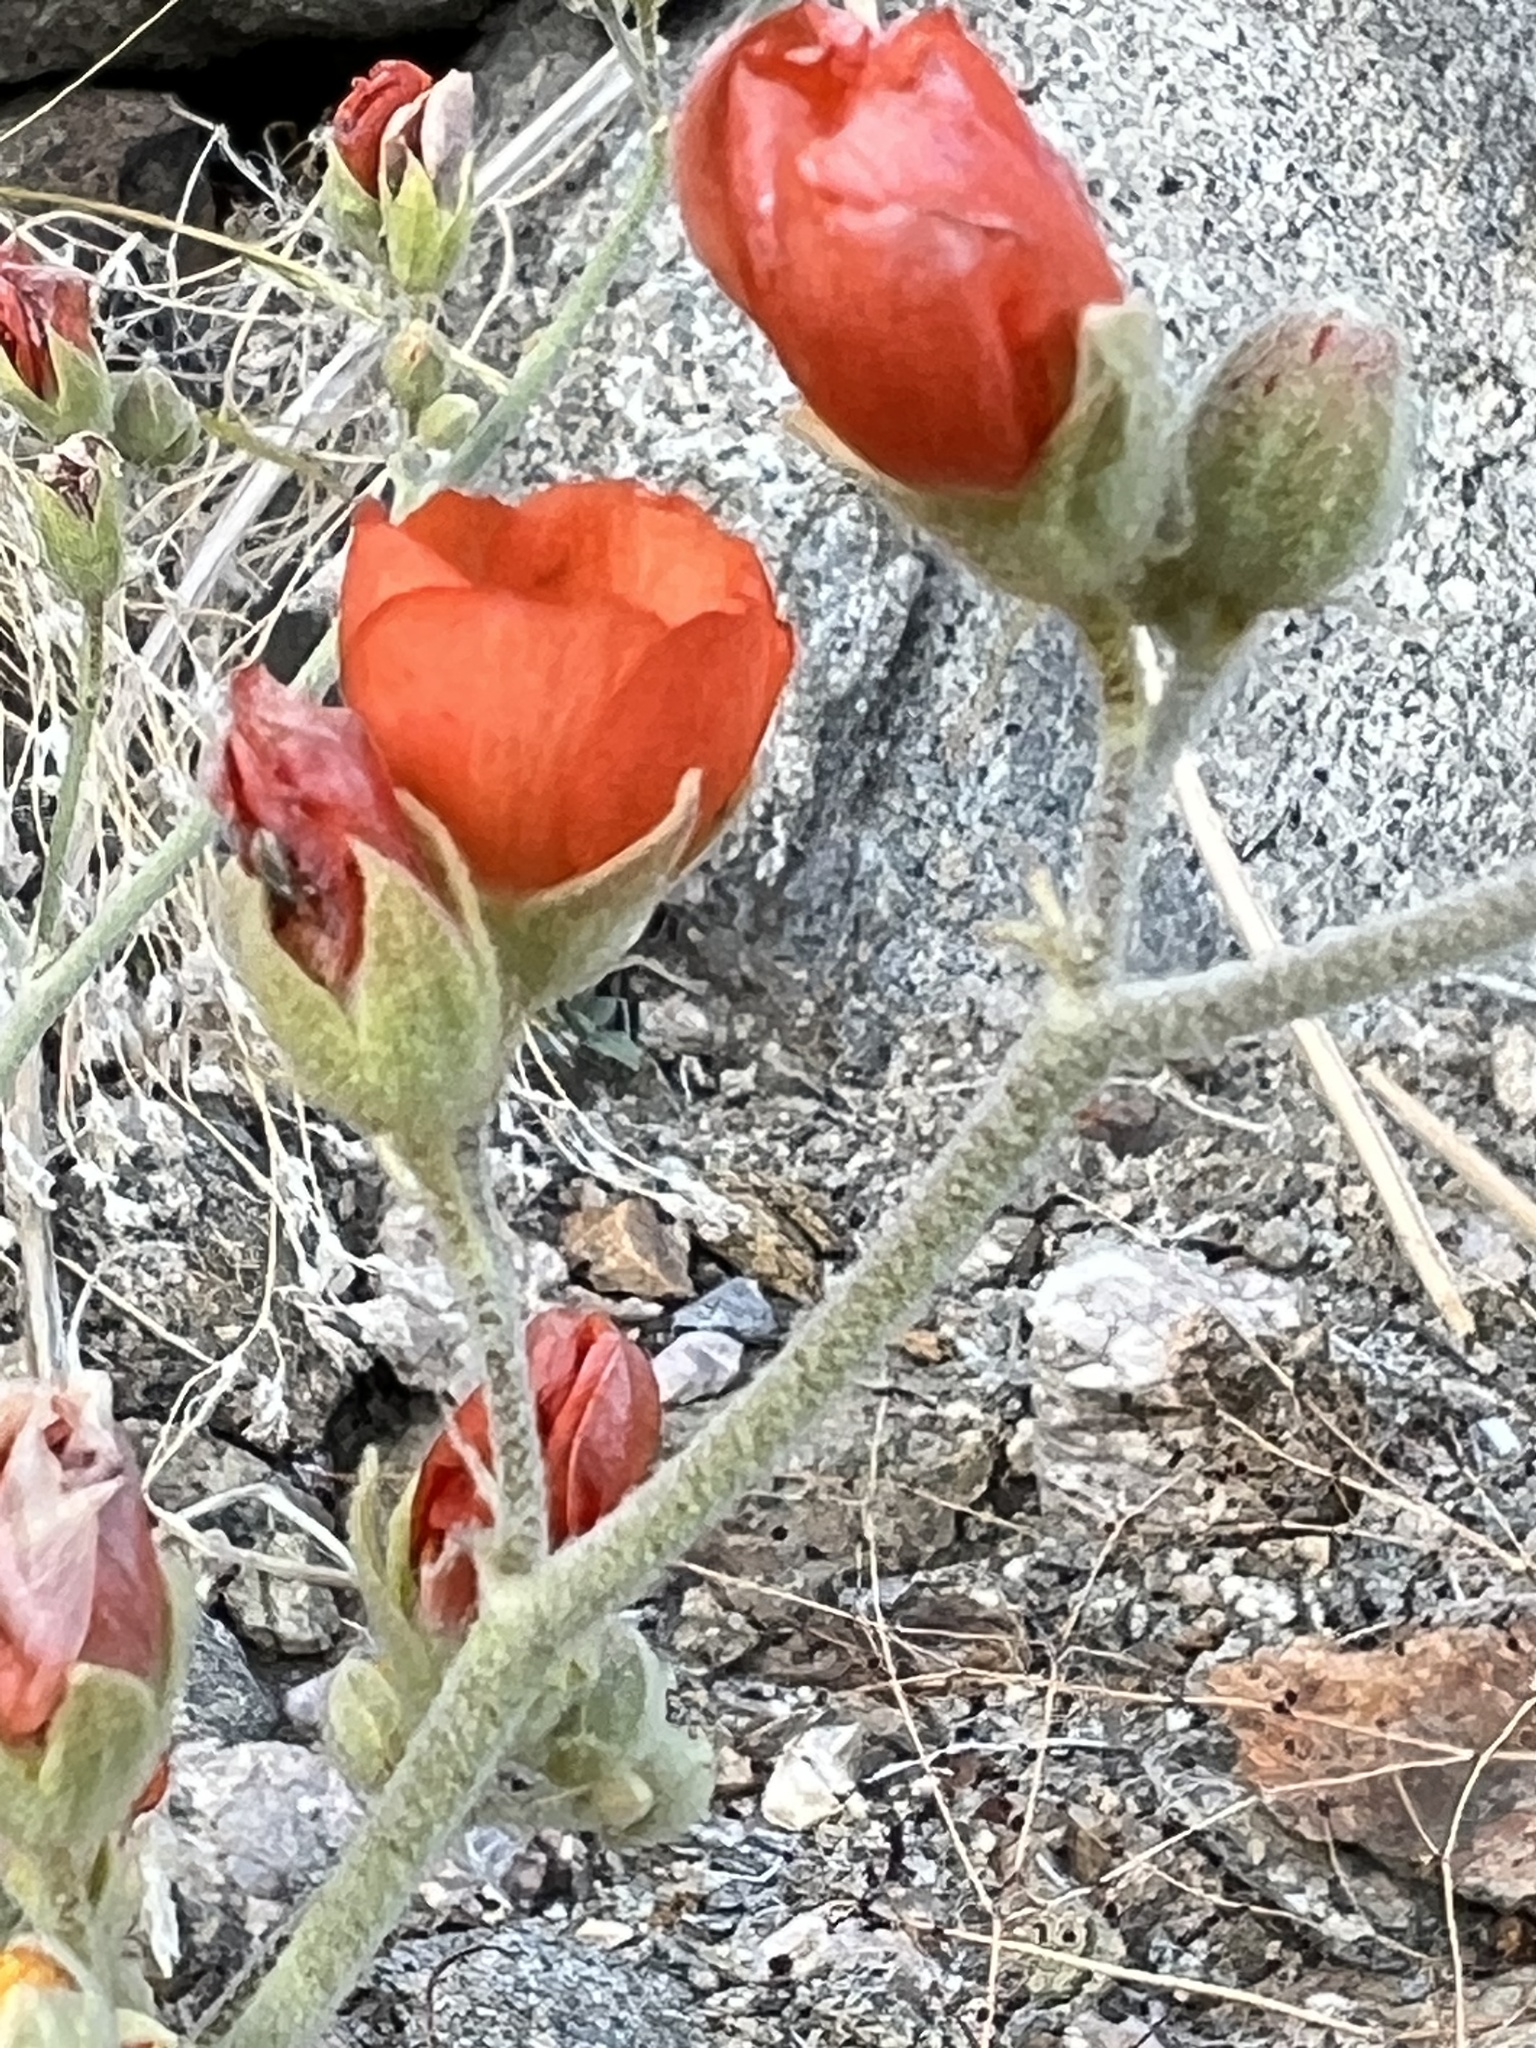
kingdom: Plantae
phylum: Tracheophyta
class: Magnoliopsida
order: Malvales
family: Malvaceae
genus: Sphaeralcea
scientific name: Sphaeralcea ambigua
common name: Apricot globe-mallow
